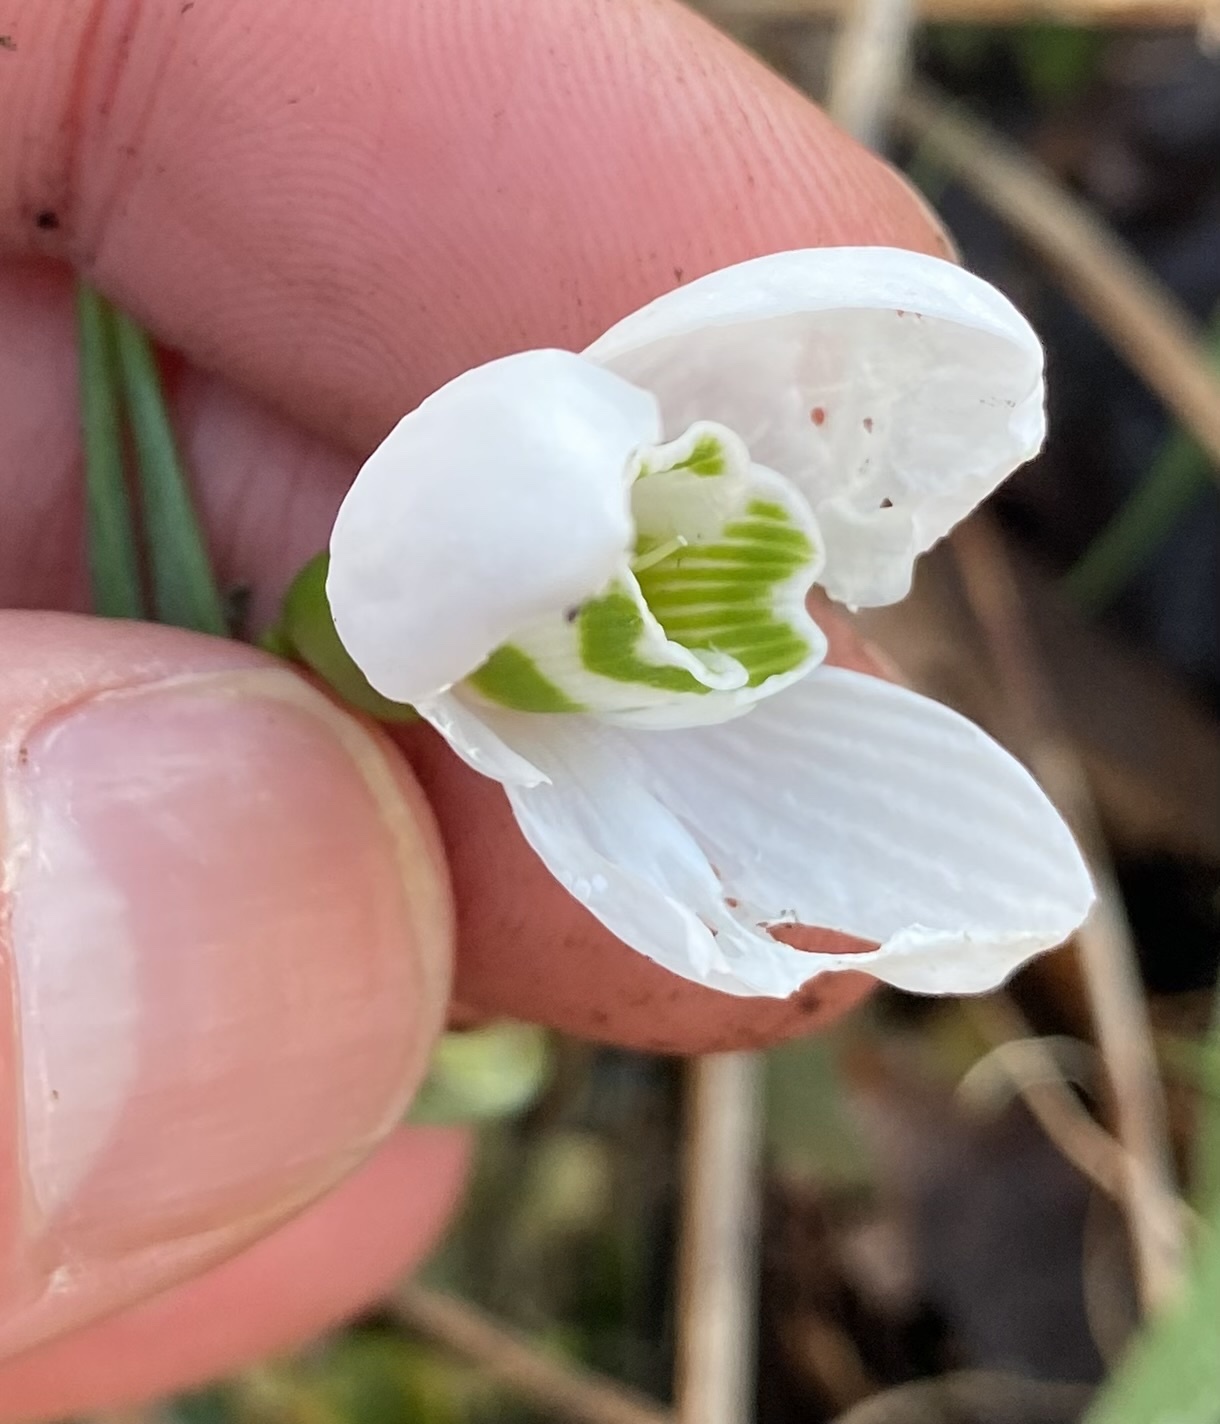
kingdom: Plantae
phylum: Tracheophyta
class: Liliopsida
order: Asparagales
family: Amaryllidaceae
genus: Galanthus
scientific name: Galanthus elwesii
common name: Greater snowdrop
